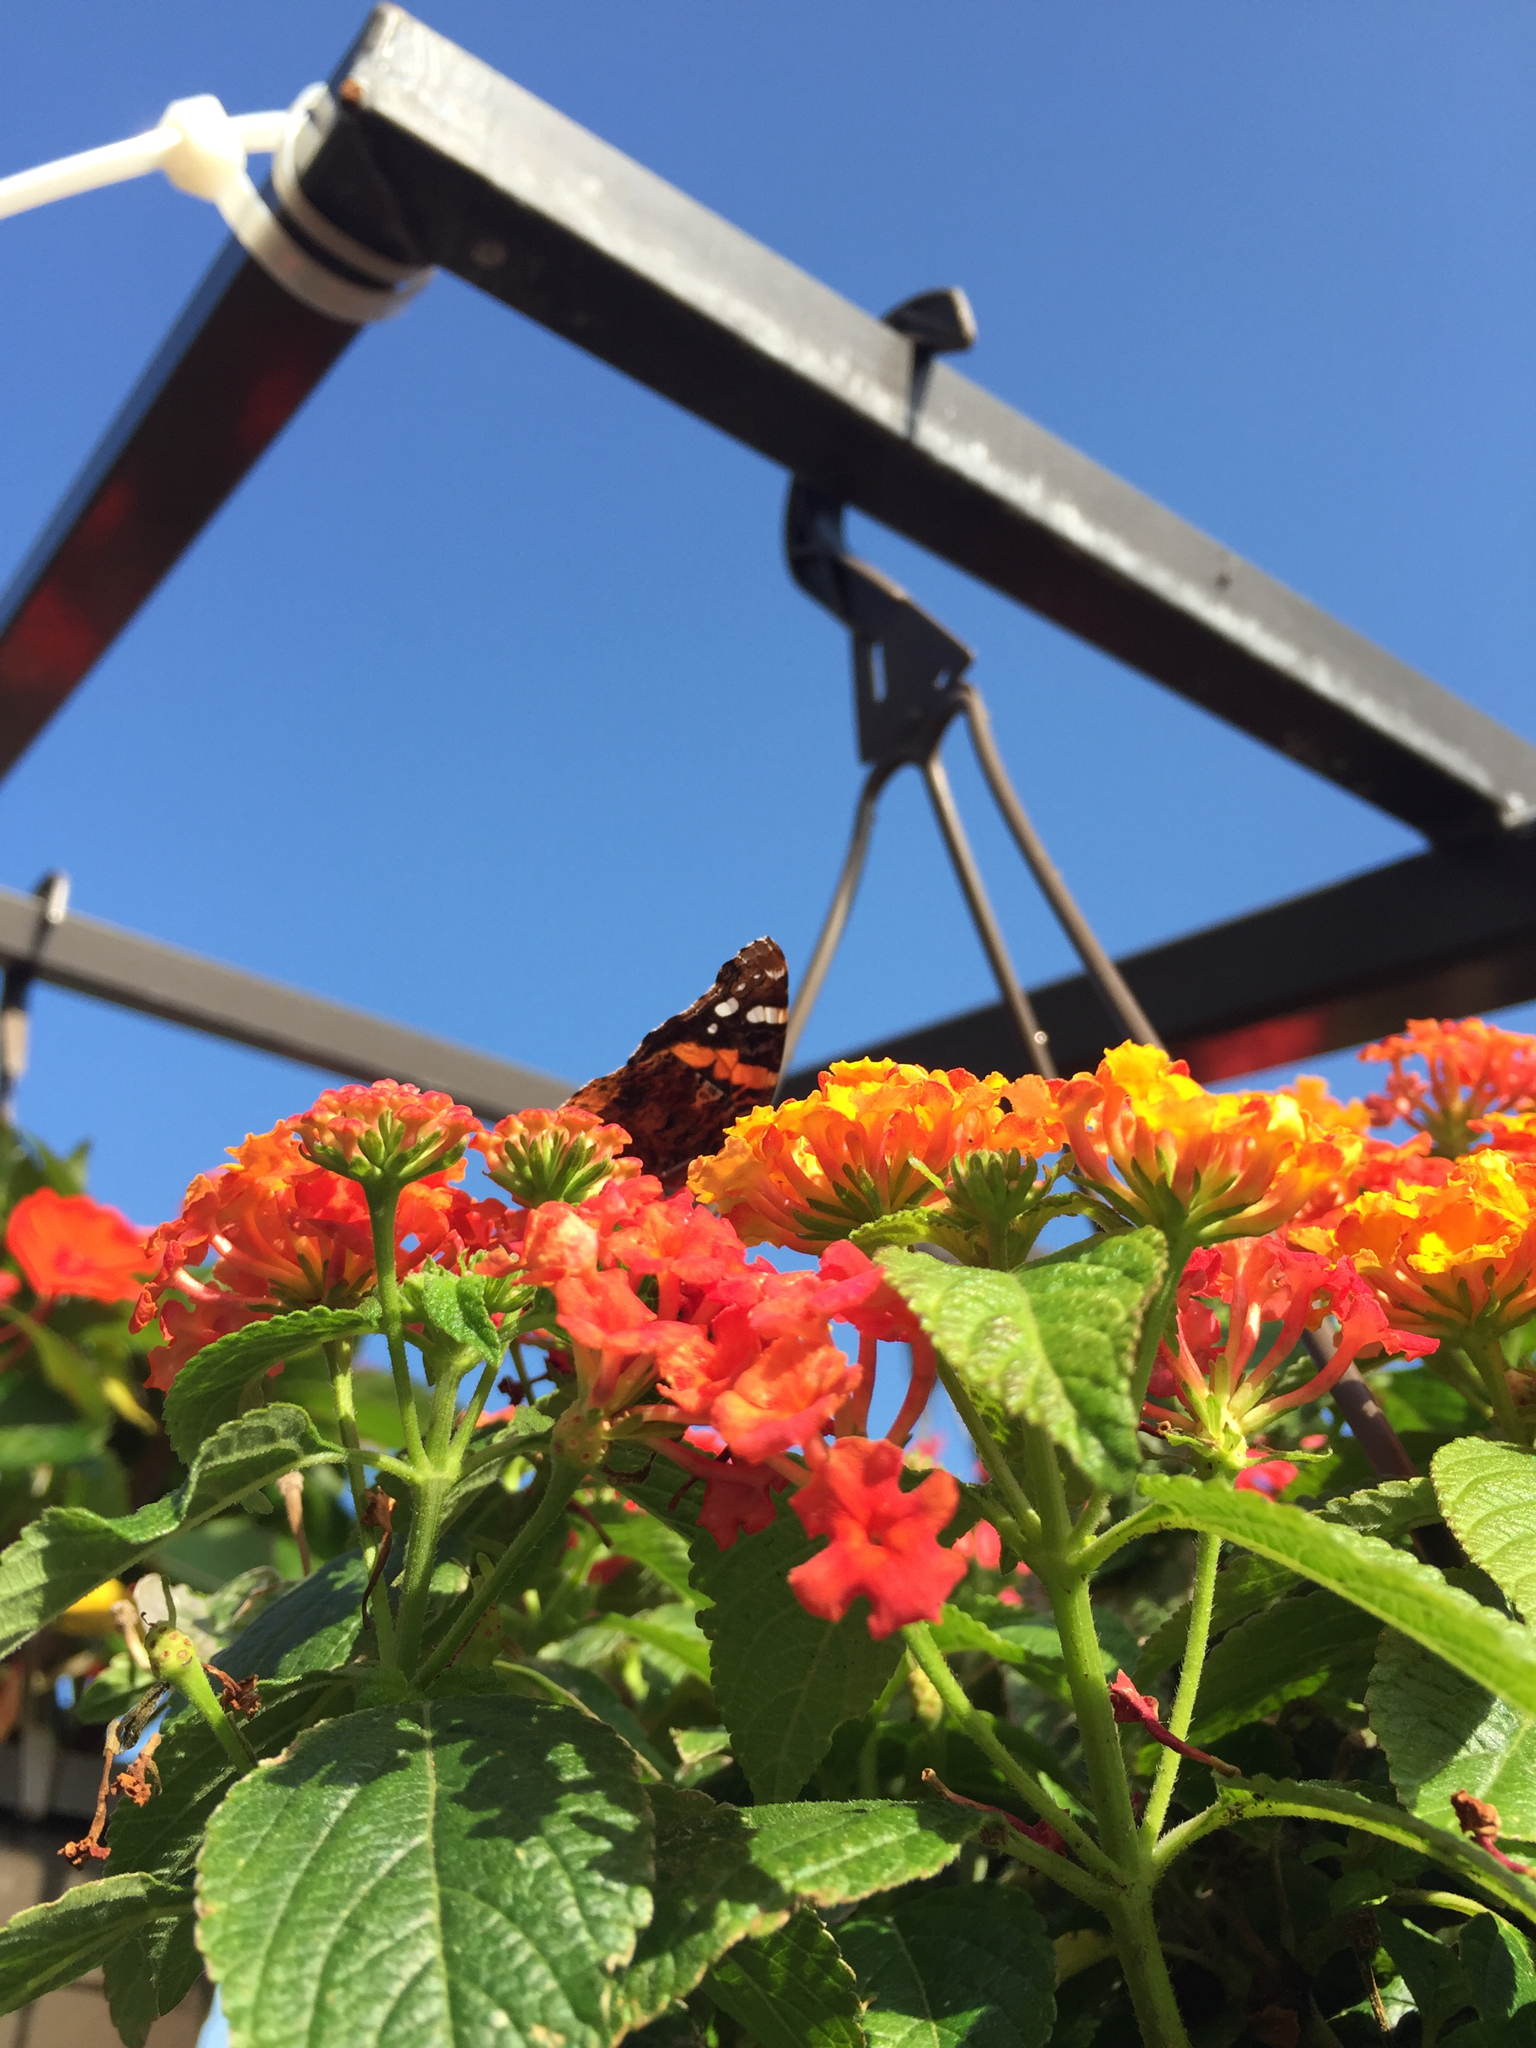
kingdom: Animalia
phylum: Arthropoda
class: Insecta
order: Lepidoptera
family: Nymphalidae
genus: Vanessa
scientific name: Vanessa atalanta
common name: Red admiral
